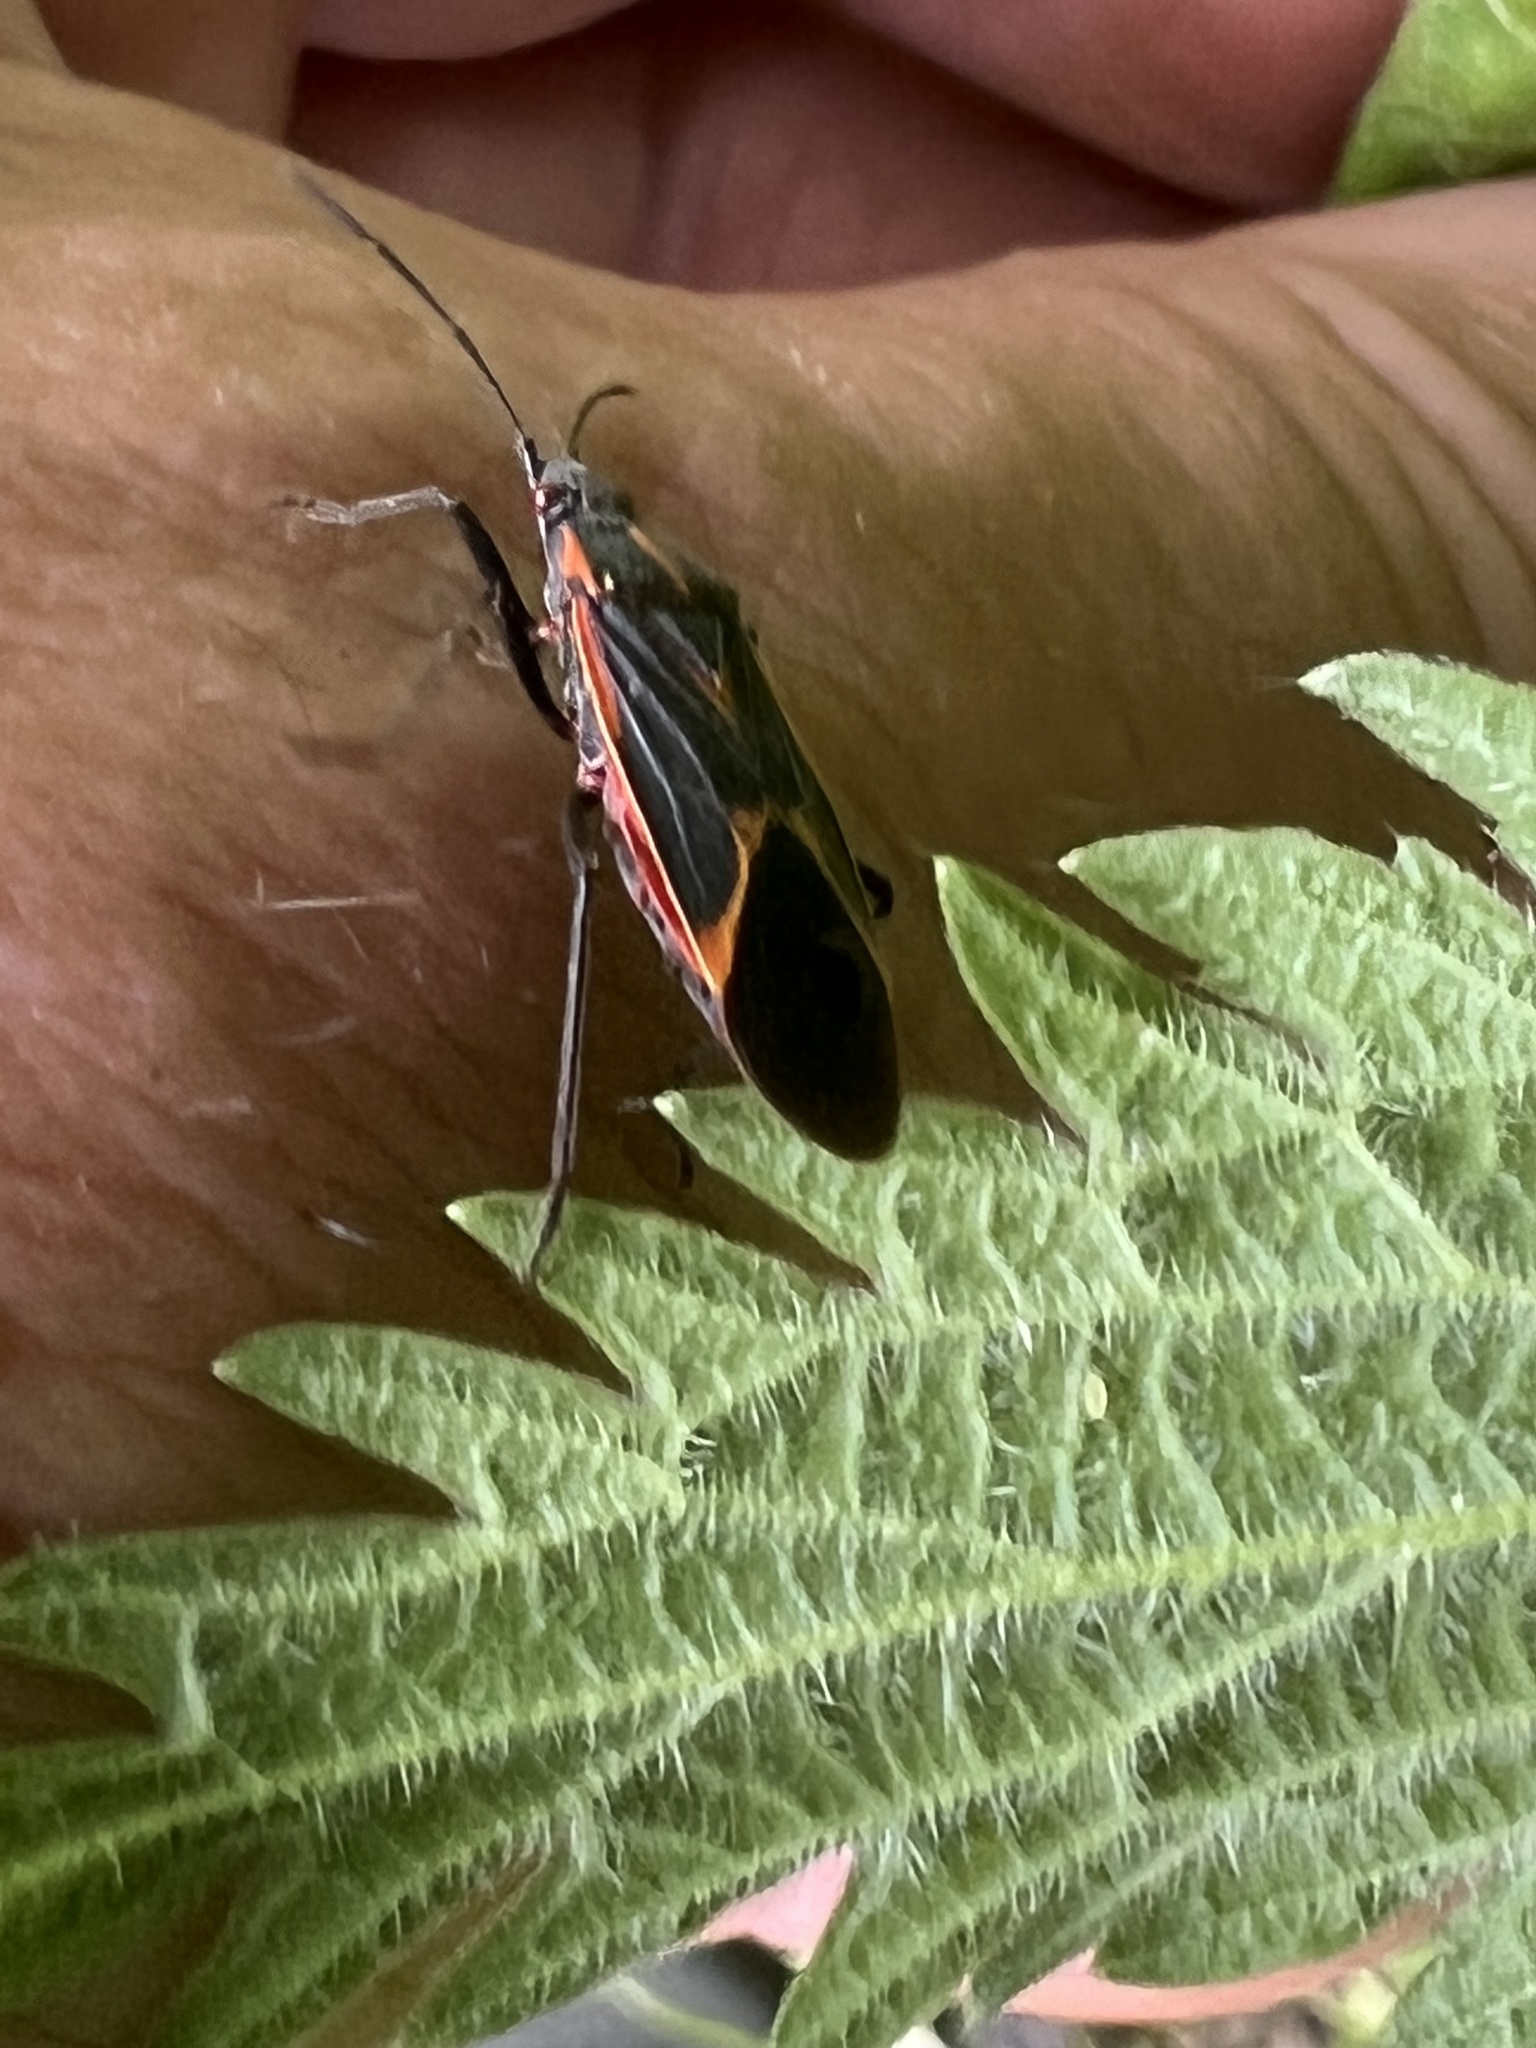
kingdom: Animalia
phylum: Arthropoda
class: Insecta
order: Hemiptera
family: Rhopalidae
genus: Boisea
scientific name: Boisea trivittata
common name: Boxelder bug
